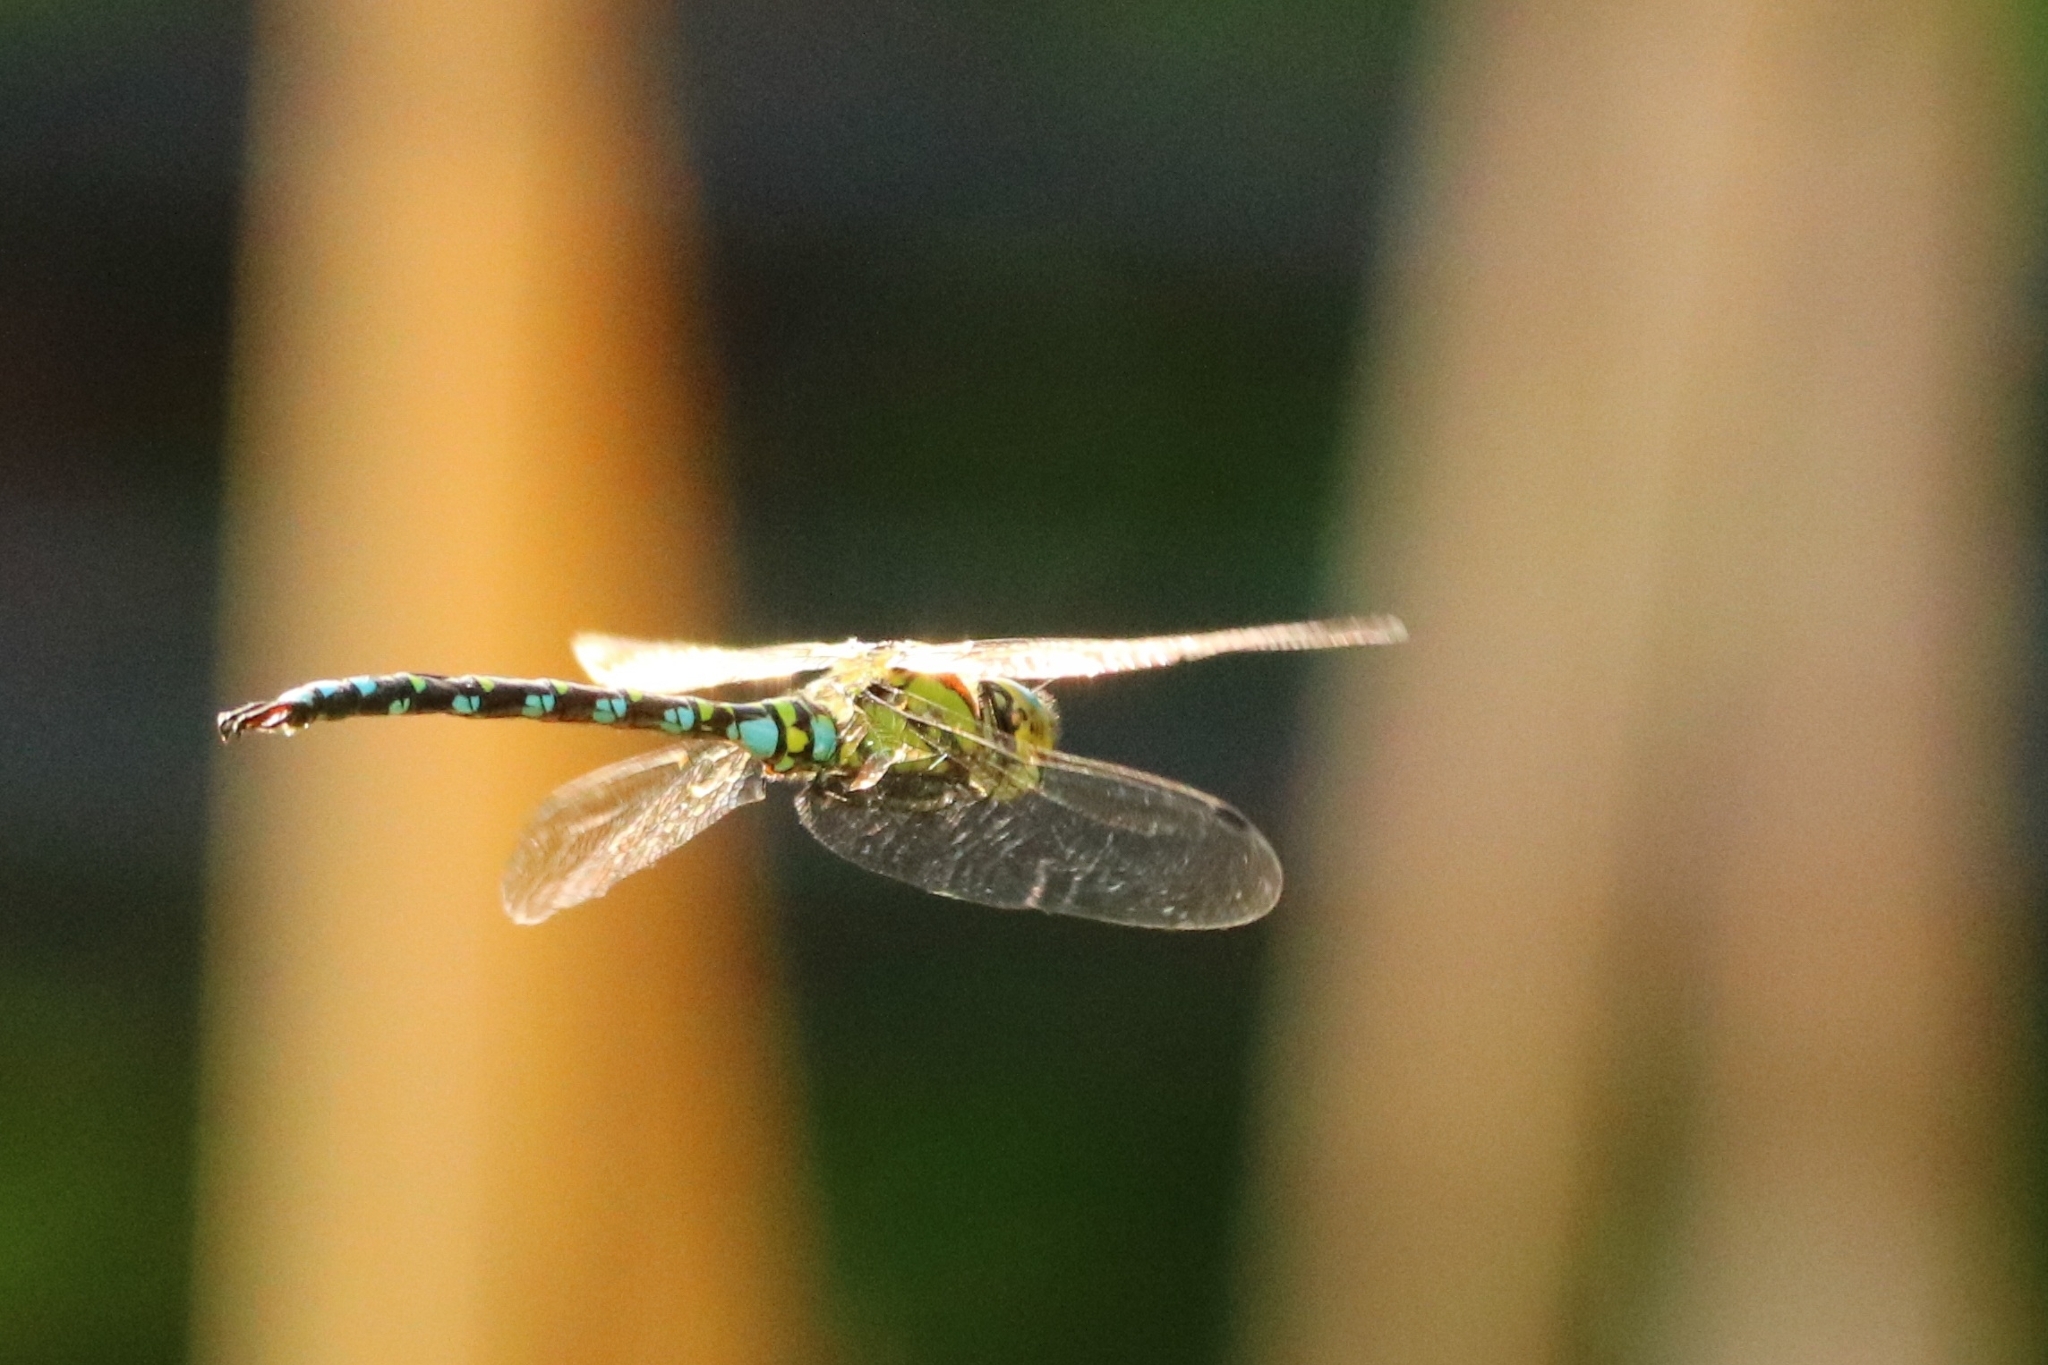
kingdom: Animalia
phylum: Arthropoda
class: Insecta
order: Odonata
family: Aeshnidae
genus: Aeshna
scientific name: Aeshna cyanea
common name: Southern hawker
